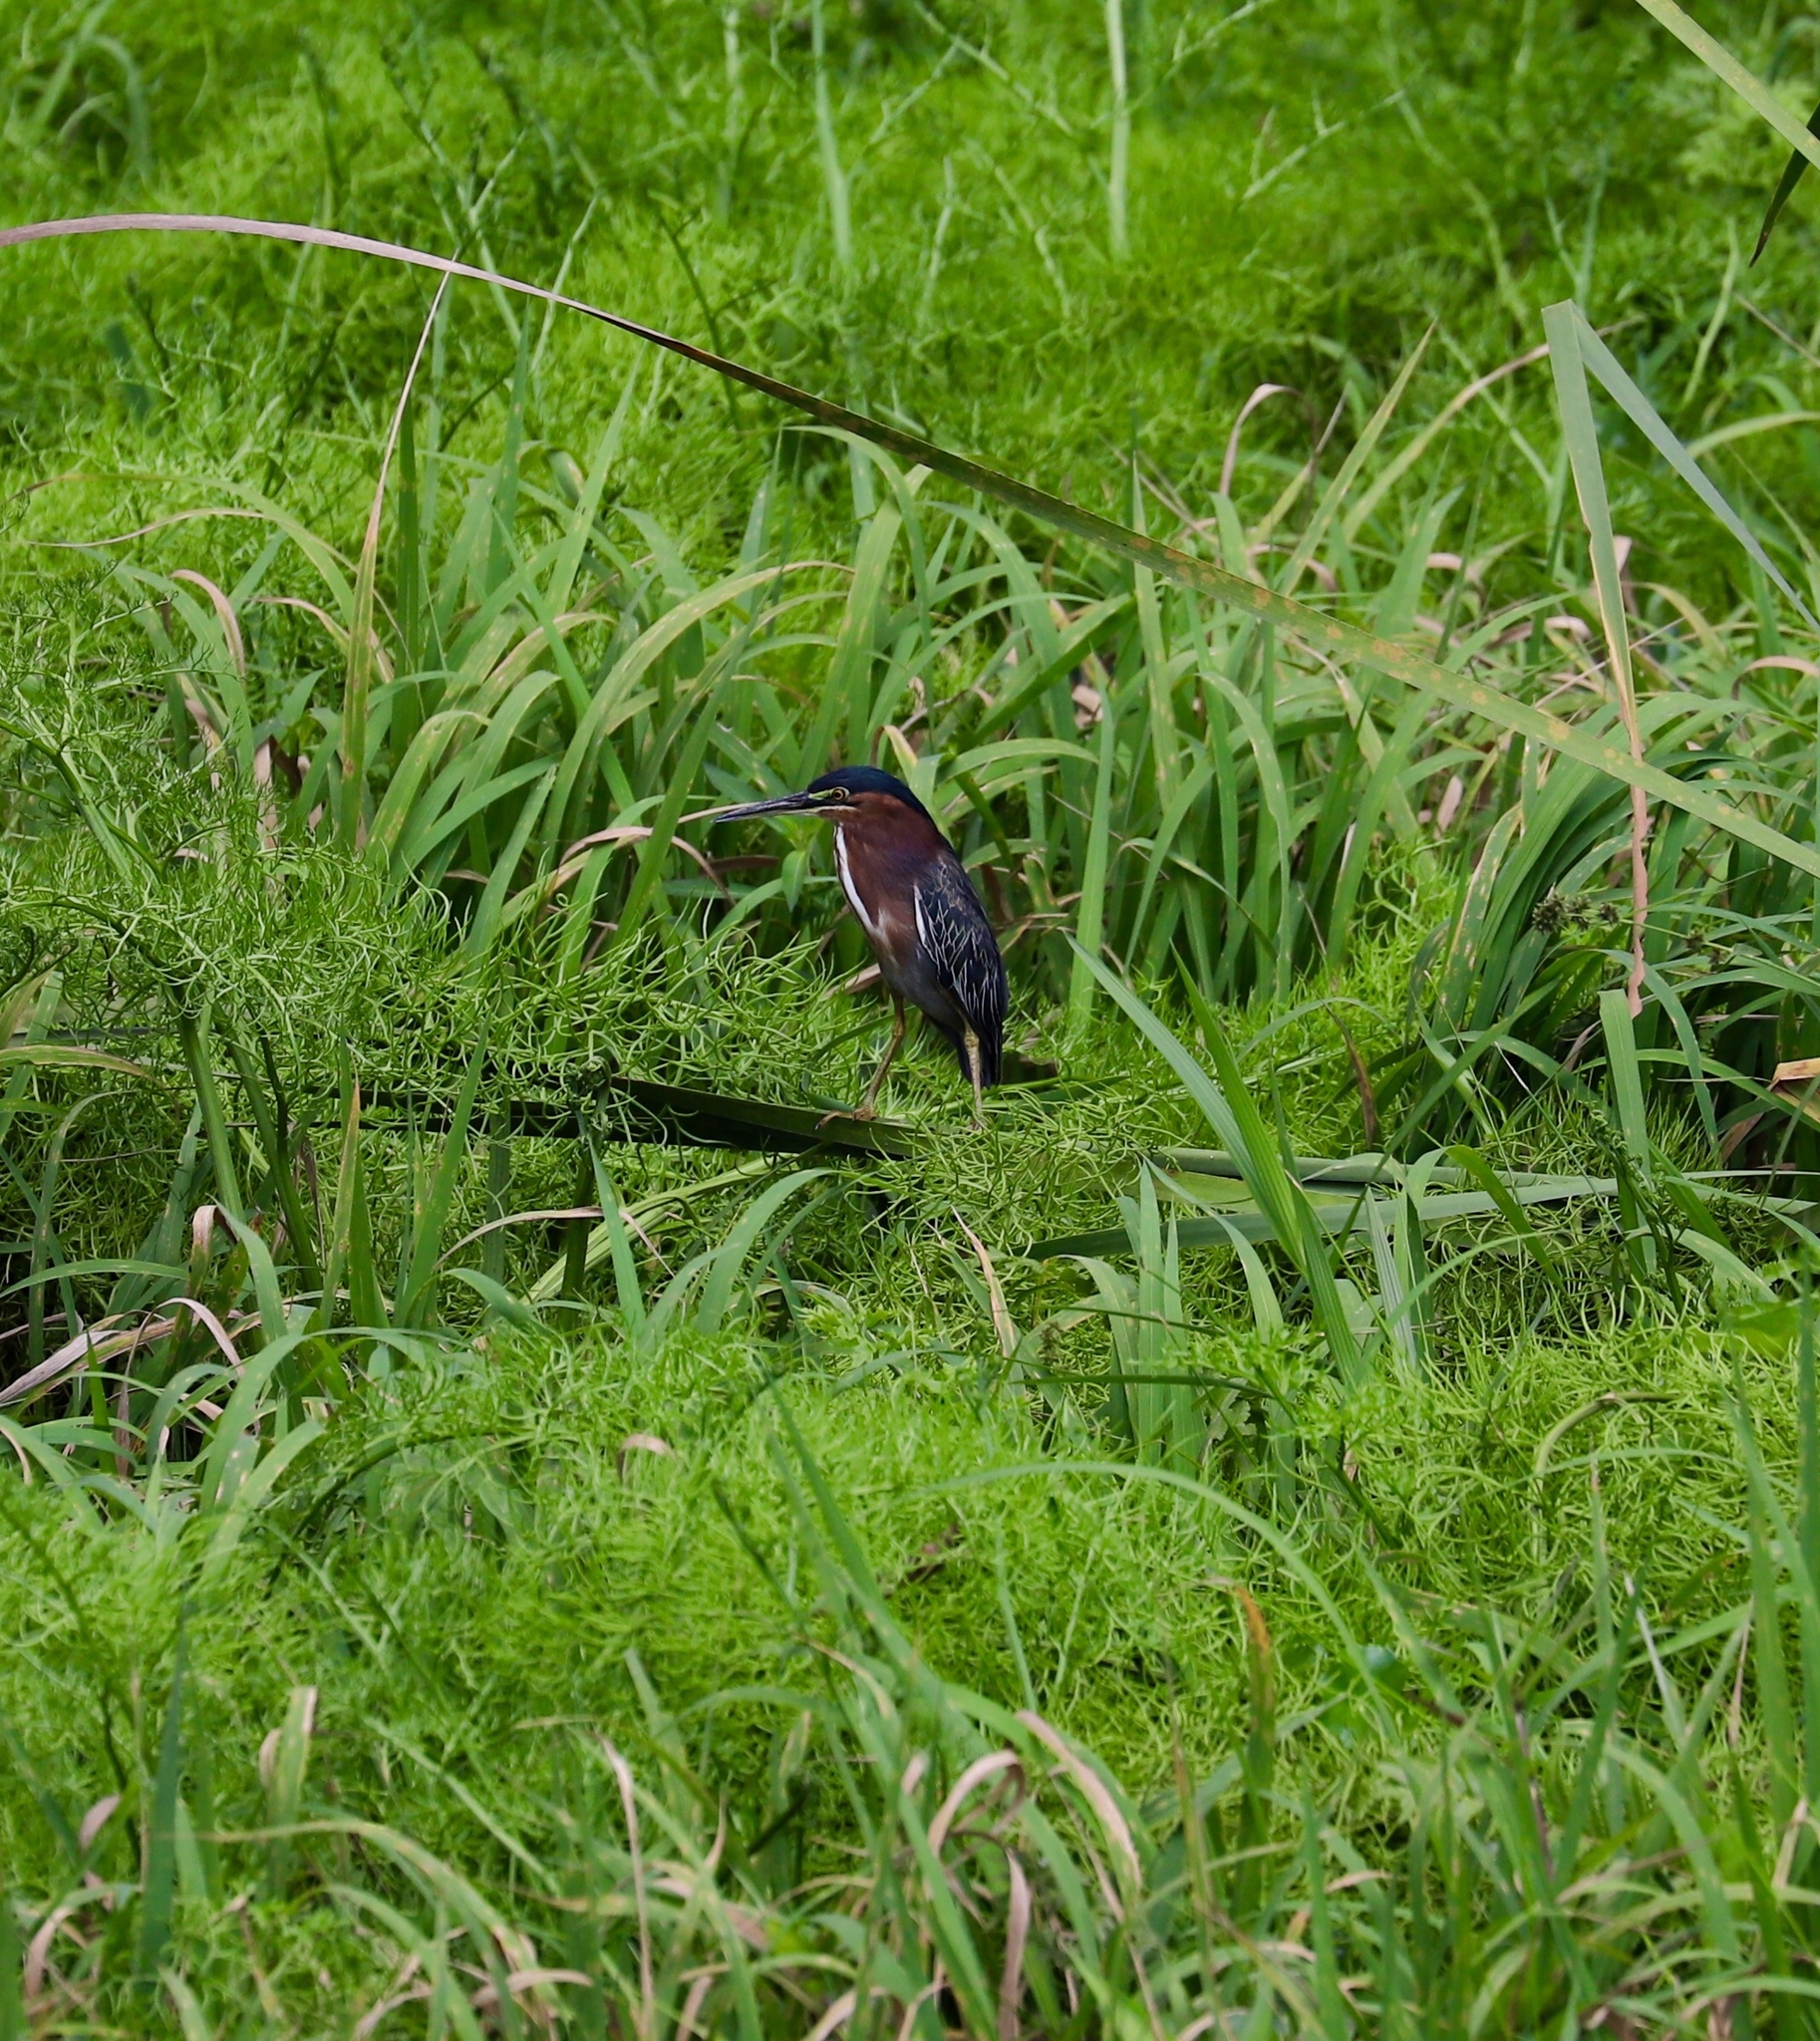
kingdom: Animalia
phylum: Chordata
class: Aves
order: Pelecaniformes
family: Ardeidae
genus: Butorides
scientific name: Butorides virescens
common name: Green heron
